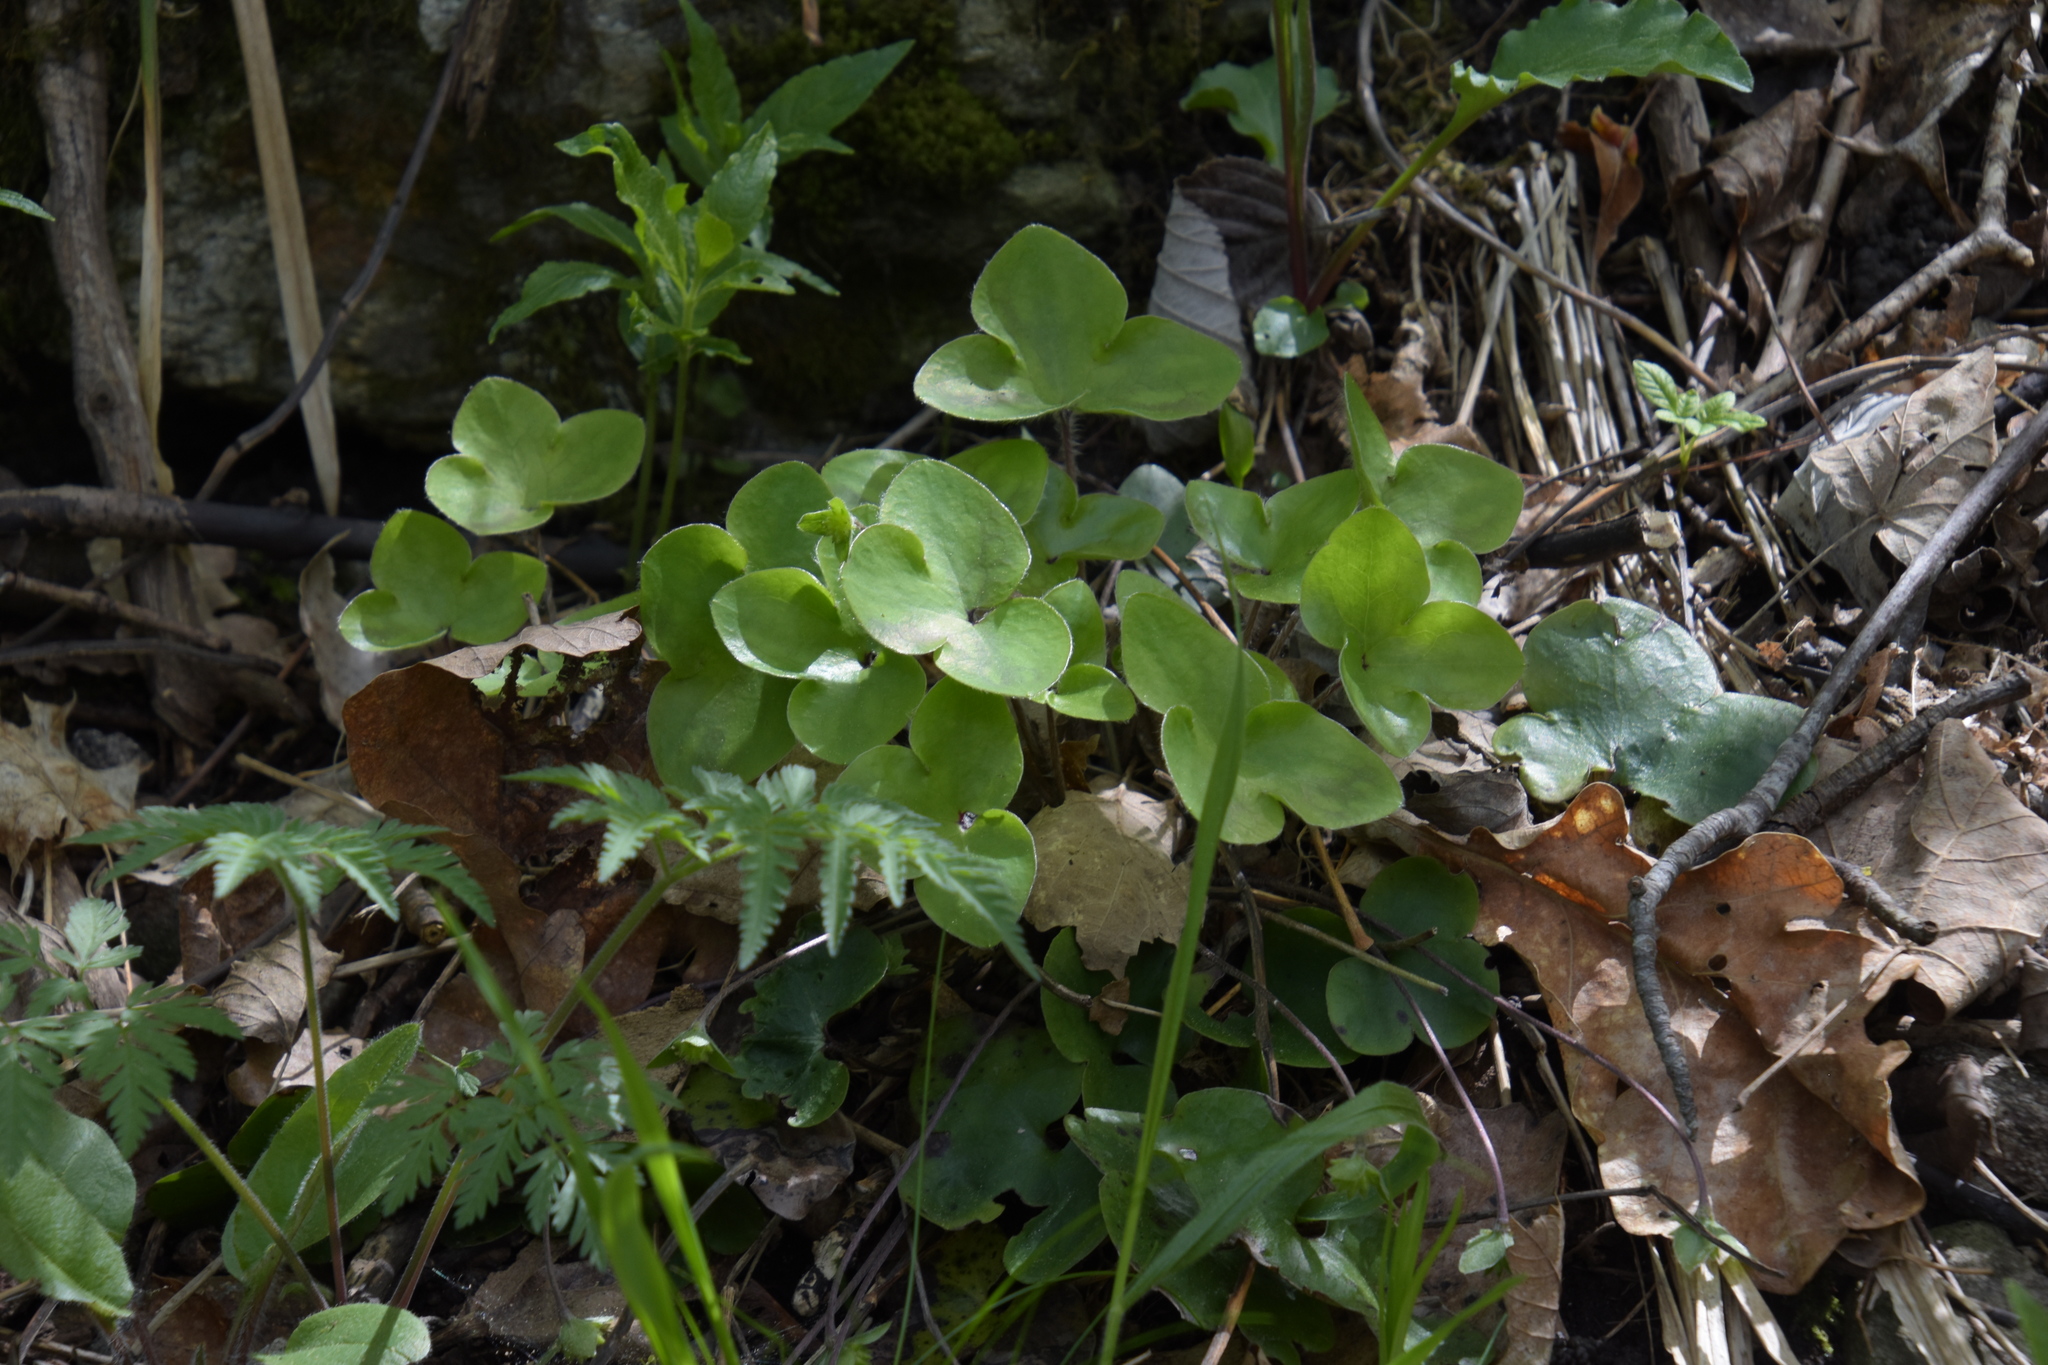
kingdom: Plantae
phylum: Tracheophyta
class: Magnoliopsida
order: Ranunculales
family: Ranunculaceae
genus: Hepatica
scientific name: Hepatica nobilis
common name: Liverleaf
